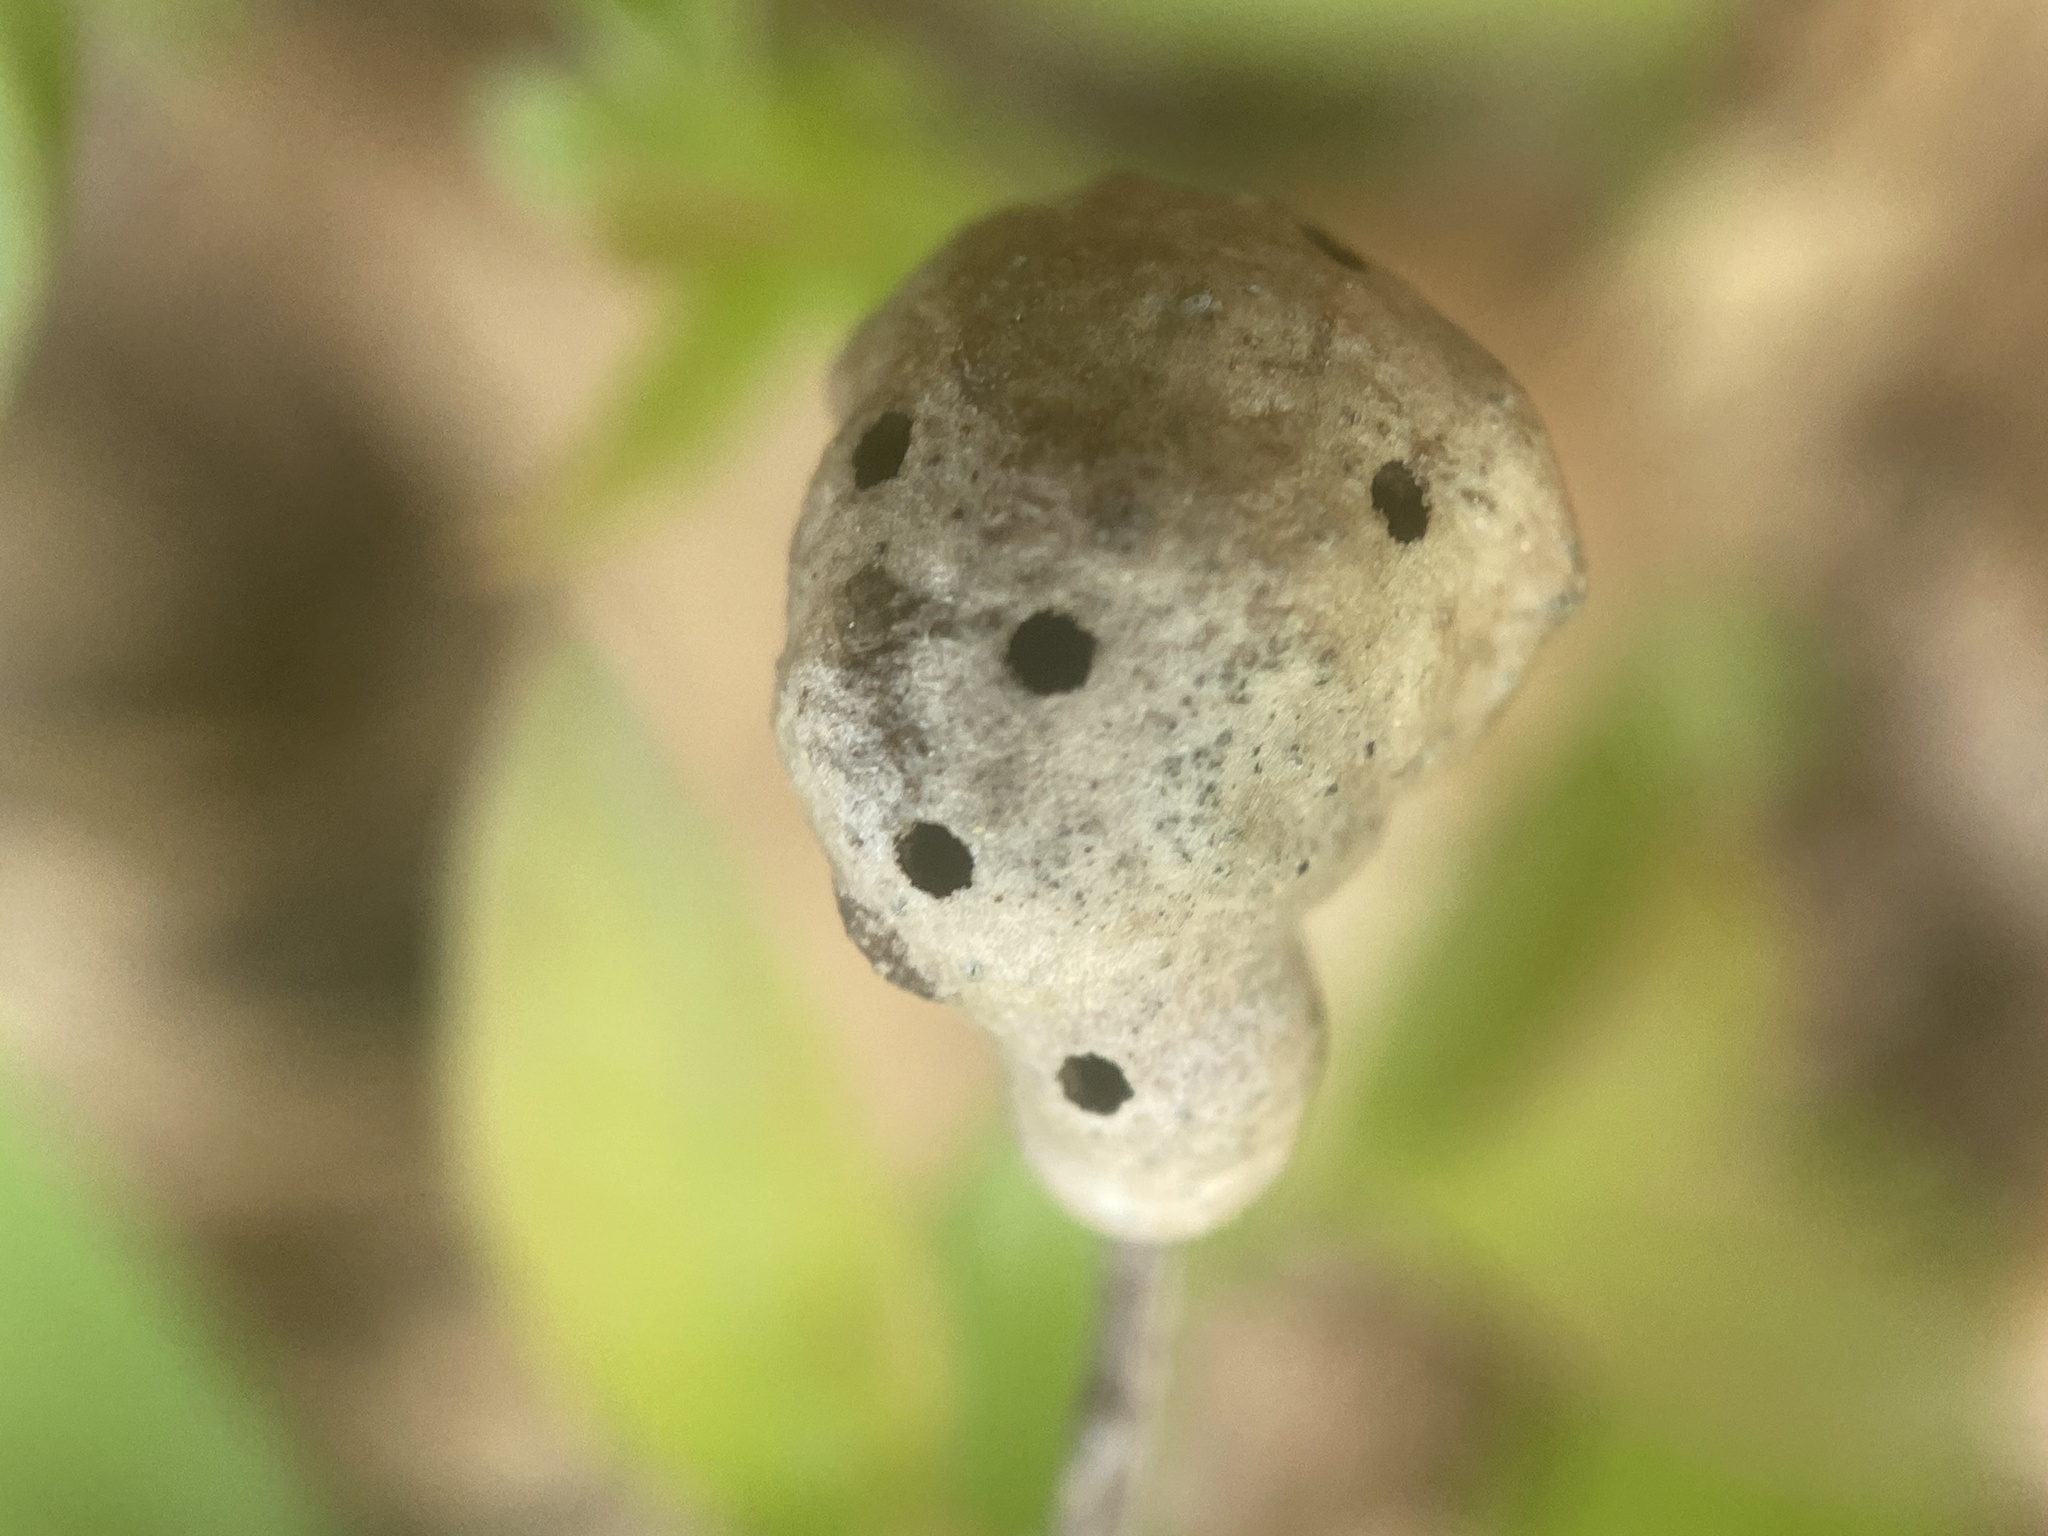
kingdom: Animalia
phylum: Arthropoda
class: Insecta
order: Hymenoptera
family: Pteromalidae
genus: Hemadas
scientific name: Hemadas nubilipennis
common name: Blueberry stem gall wasp
